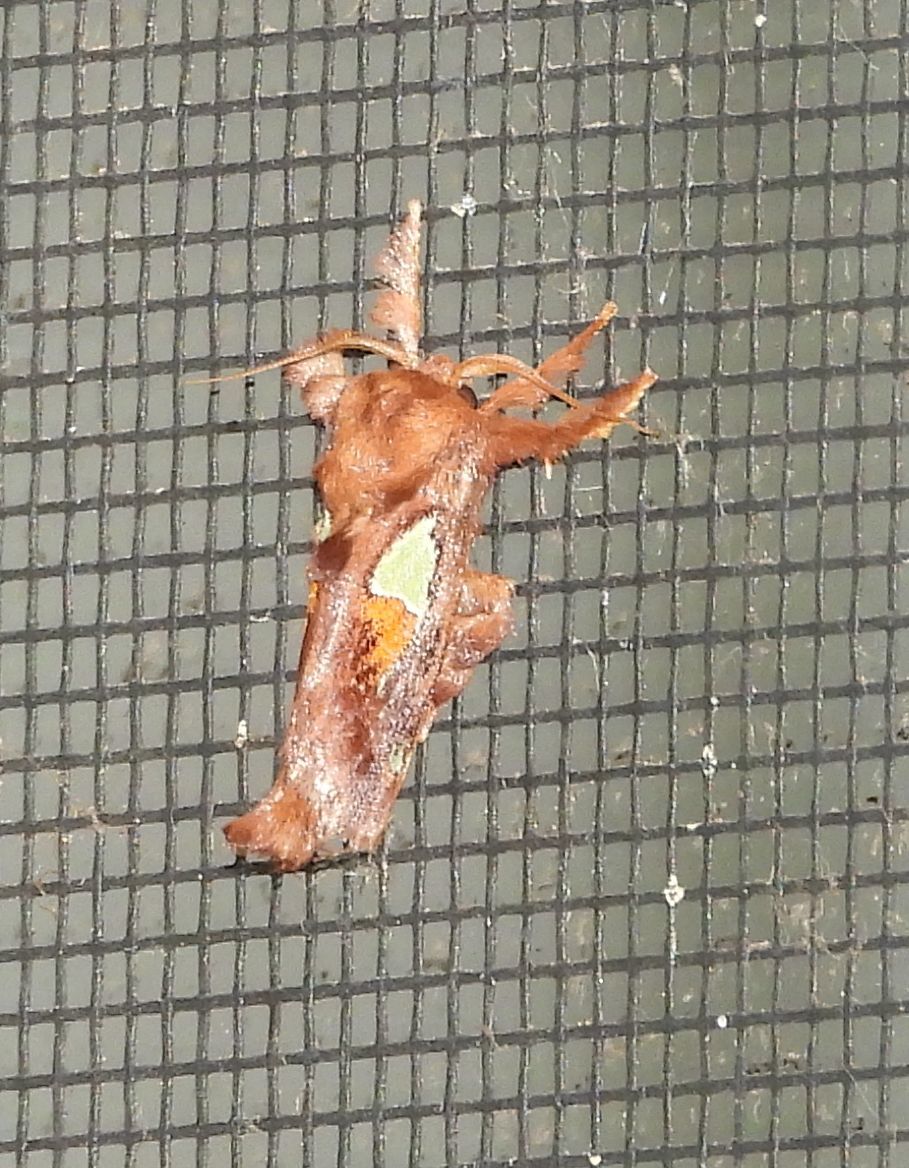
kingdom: Animalia
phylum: Arthropoda
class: Insecta
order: Lepidoptera
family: Limacodidae
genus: Euclea
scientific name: Euclea delphinii
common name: Spiny oak-slug moth
